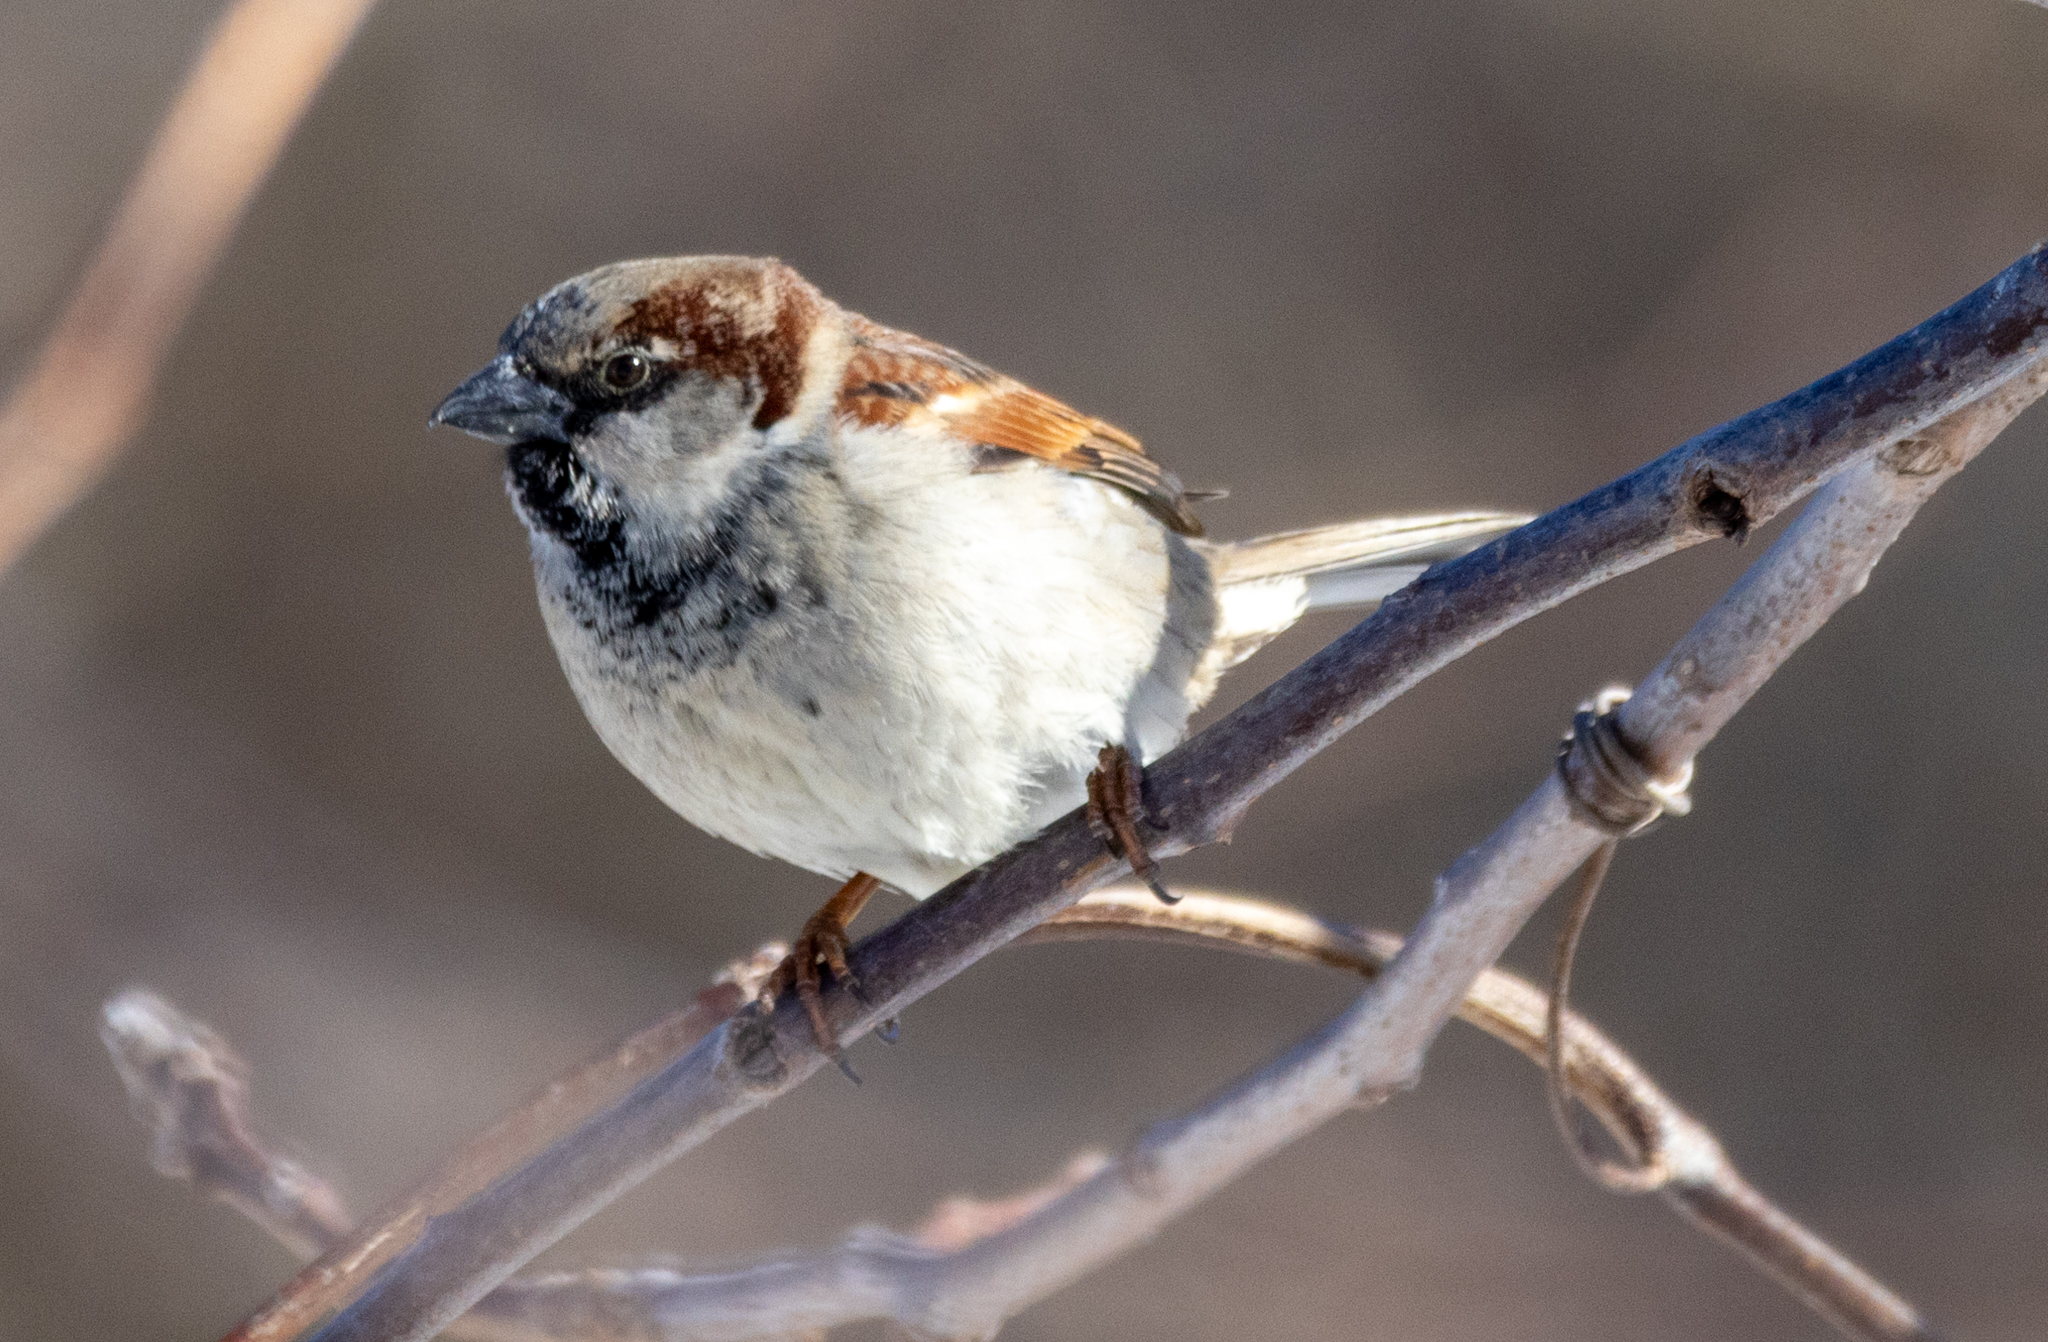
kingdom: Animalia
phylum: Chordata
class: Aves
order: Passeriformes
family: Passeridae
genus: Passer
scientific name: Passer domesticus
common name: House sparrow
